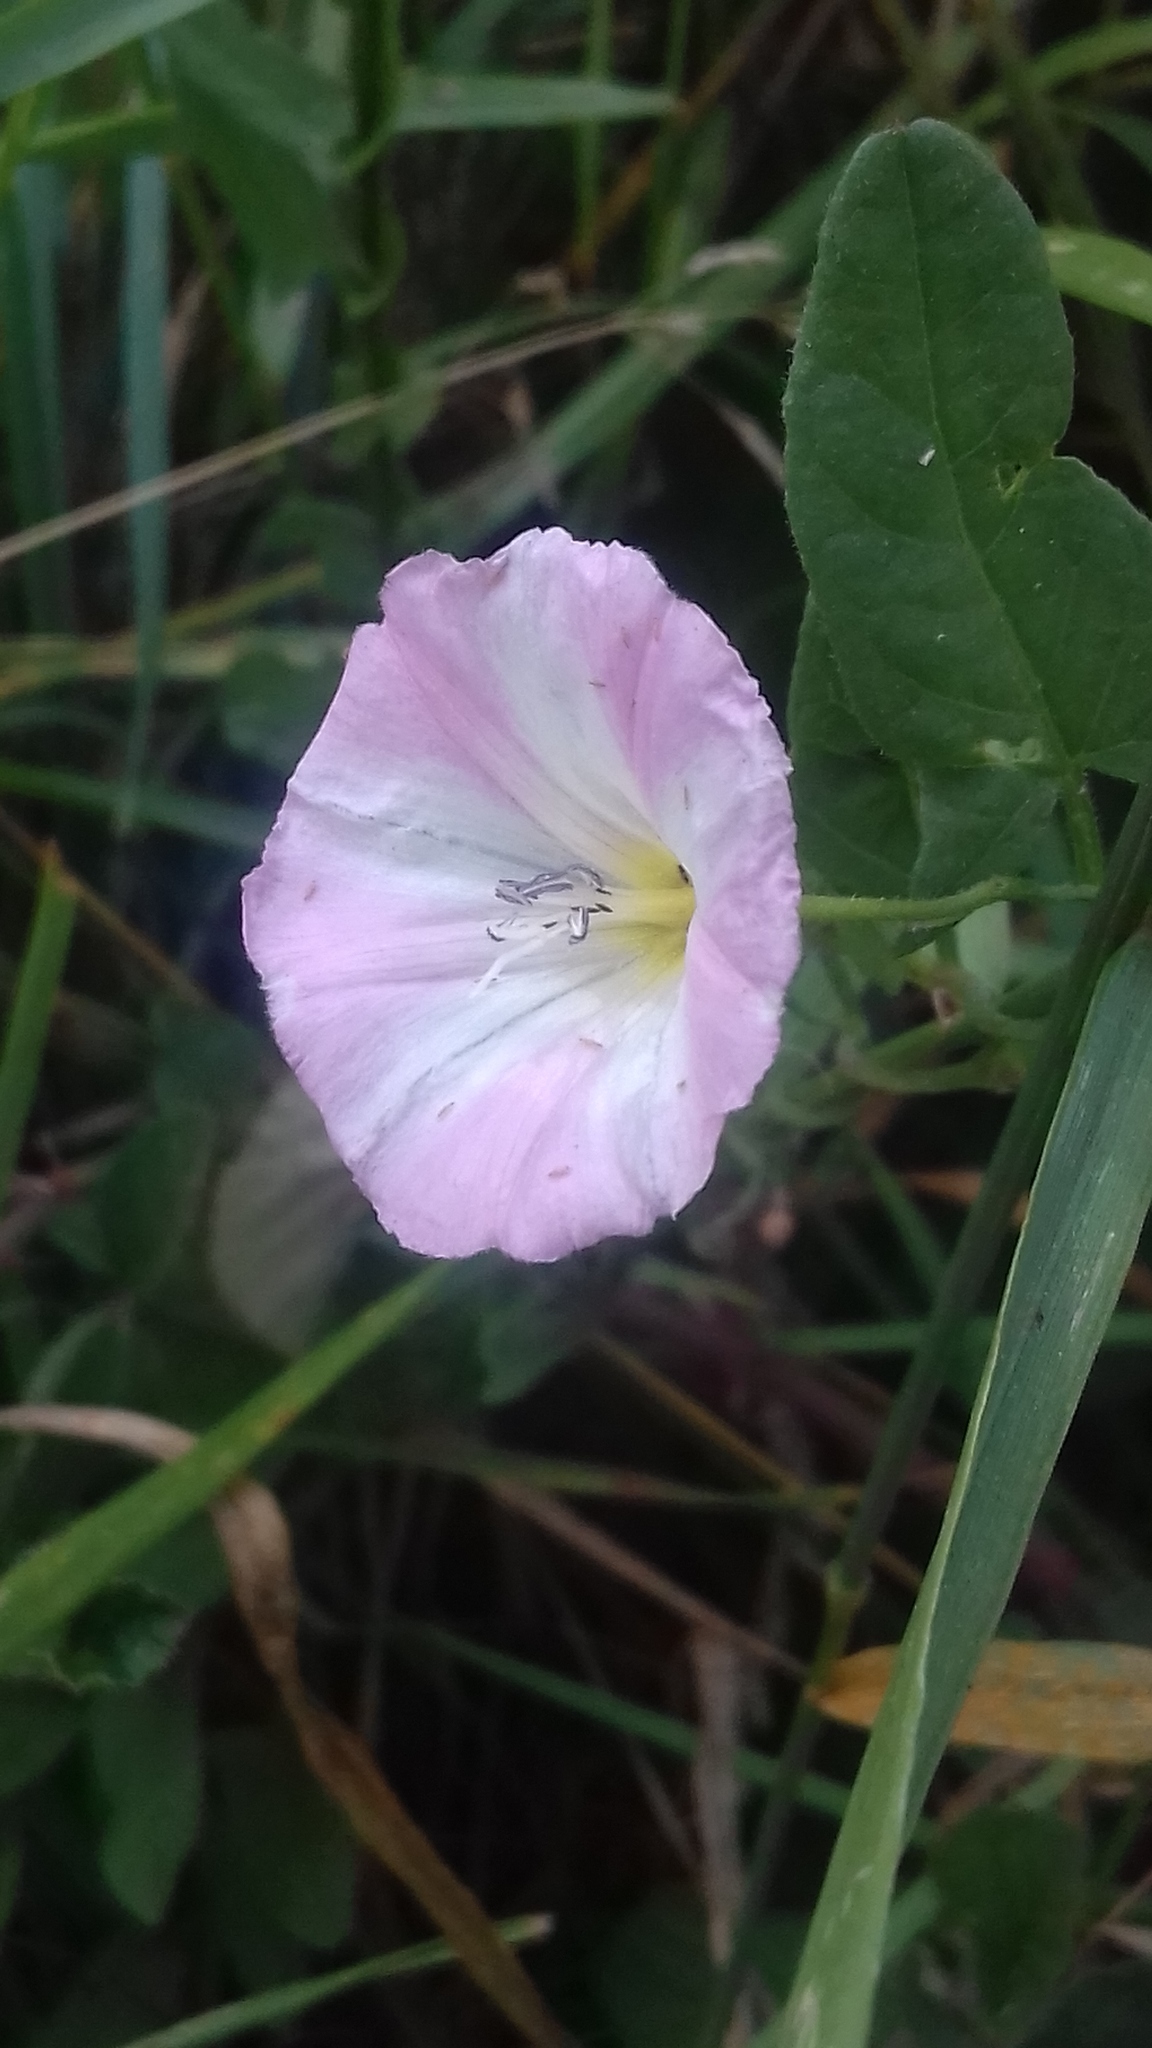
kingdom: Plantae
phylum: Tracheophyta
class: Magnoliopsida
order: Solanales
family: Convolvulaceae
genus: Convolvulus
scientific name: Convolvulus arvensis
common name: Field bindweed
